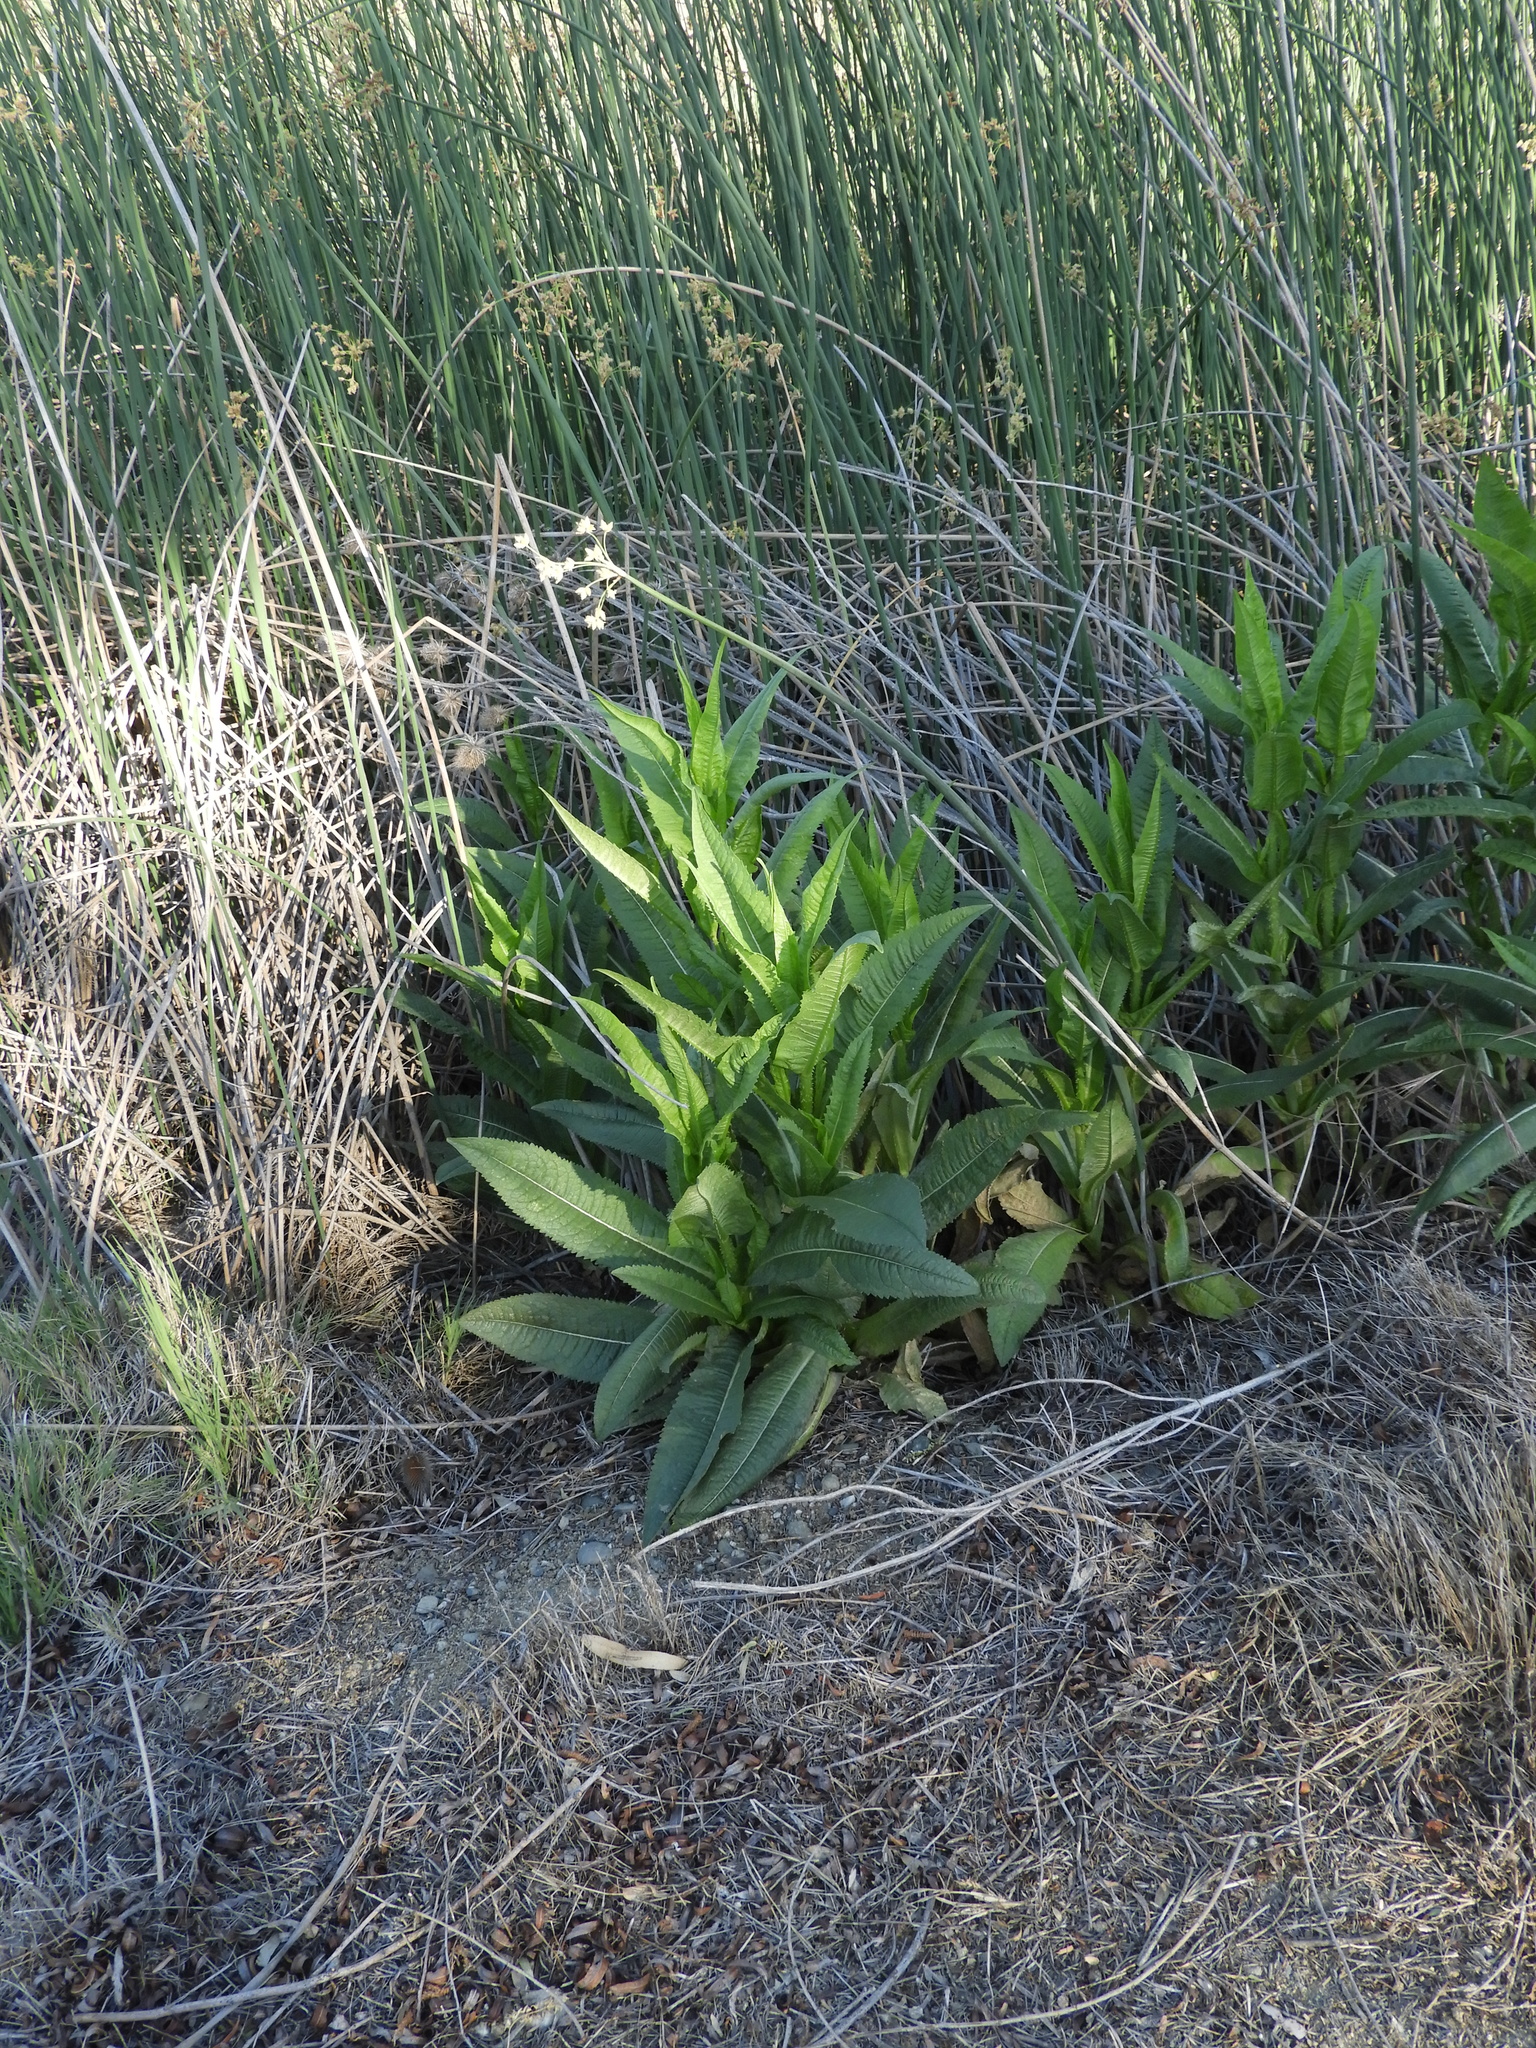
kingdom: Plantae
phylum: Tracheophyta
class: Magnoliopsida
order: Dipsacales
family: Caprifoliaceae
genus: Dipsacus
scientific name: Dipsacus fullonum
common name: Teasel
